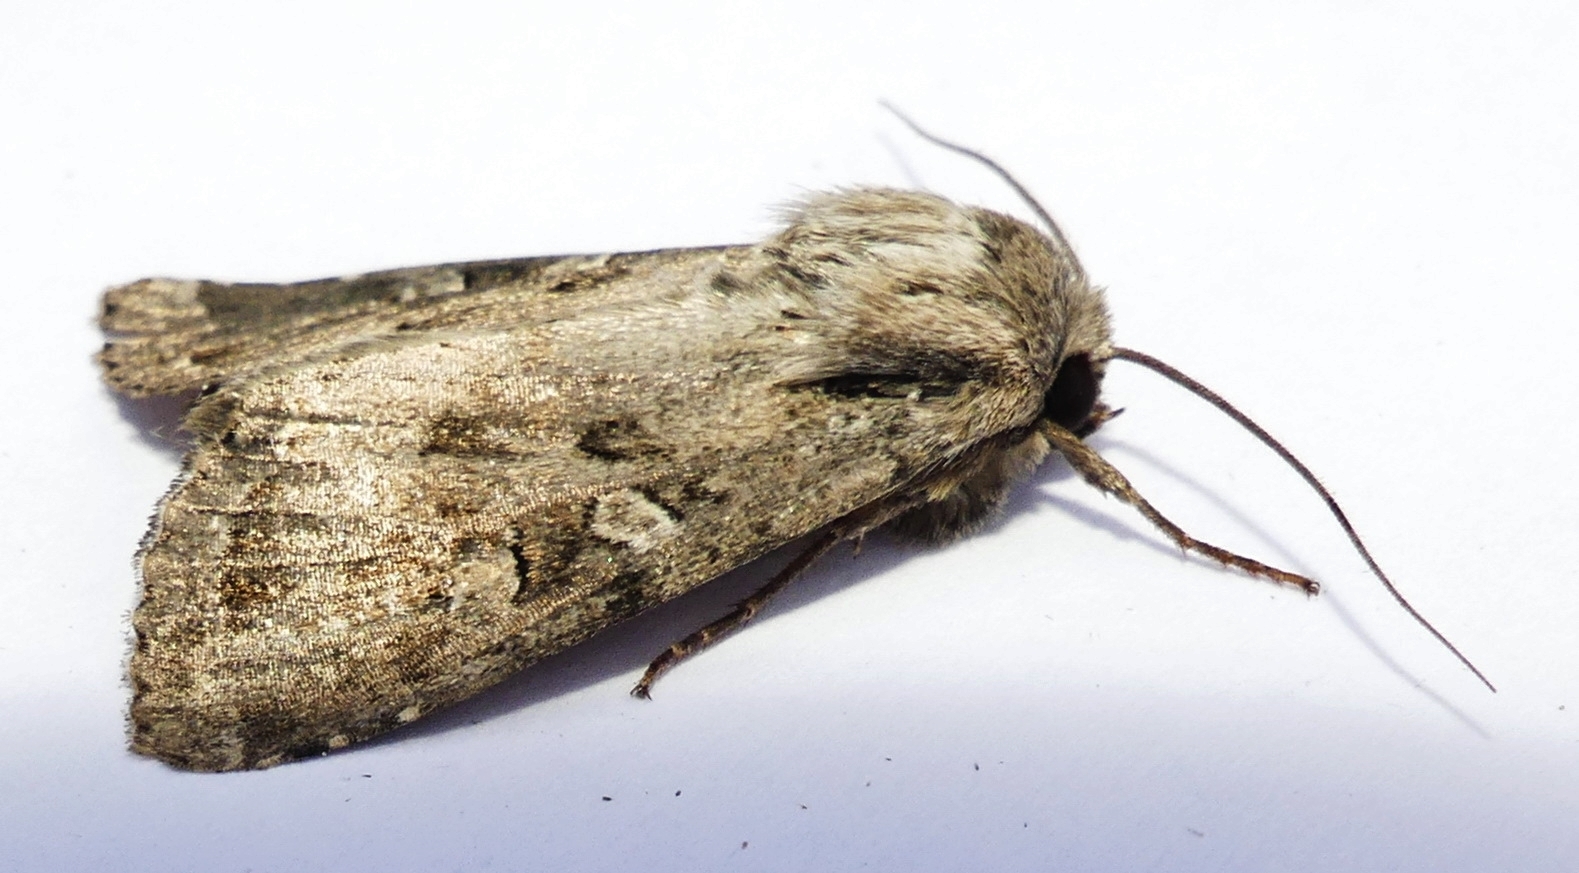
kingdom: Animalia
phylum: Arthropoda
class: Insecta
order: Lepidoptera
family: Noctuidae
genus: Apamea
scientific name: Apamea devastator
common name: Glassy cutworm
